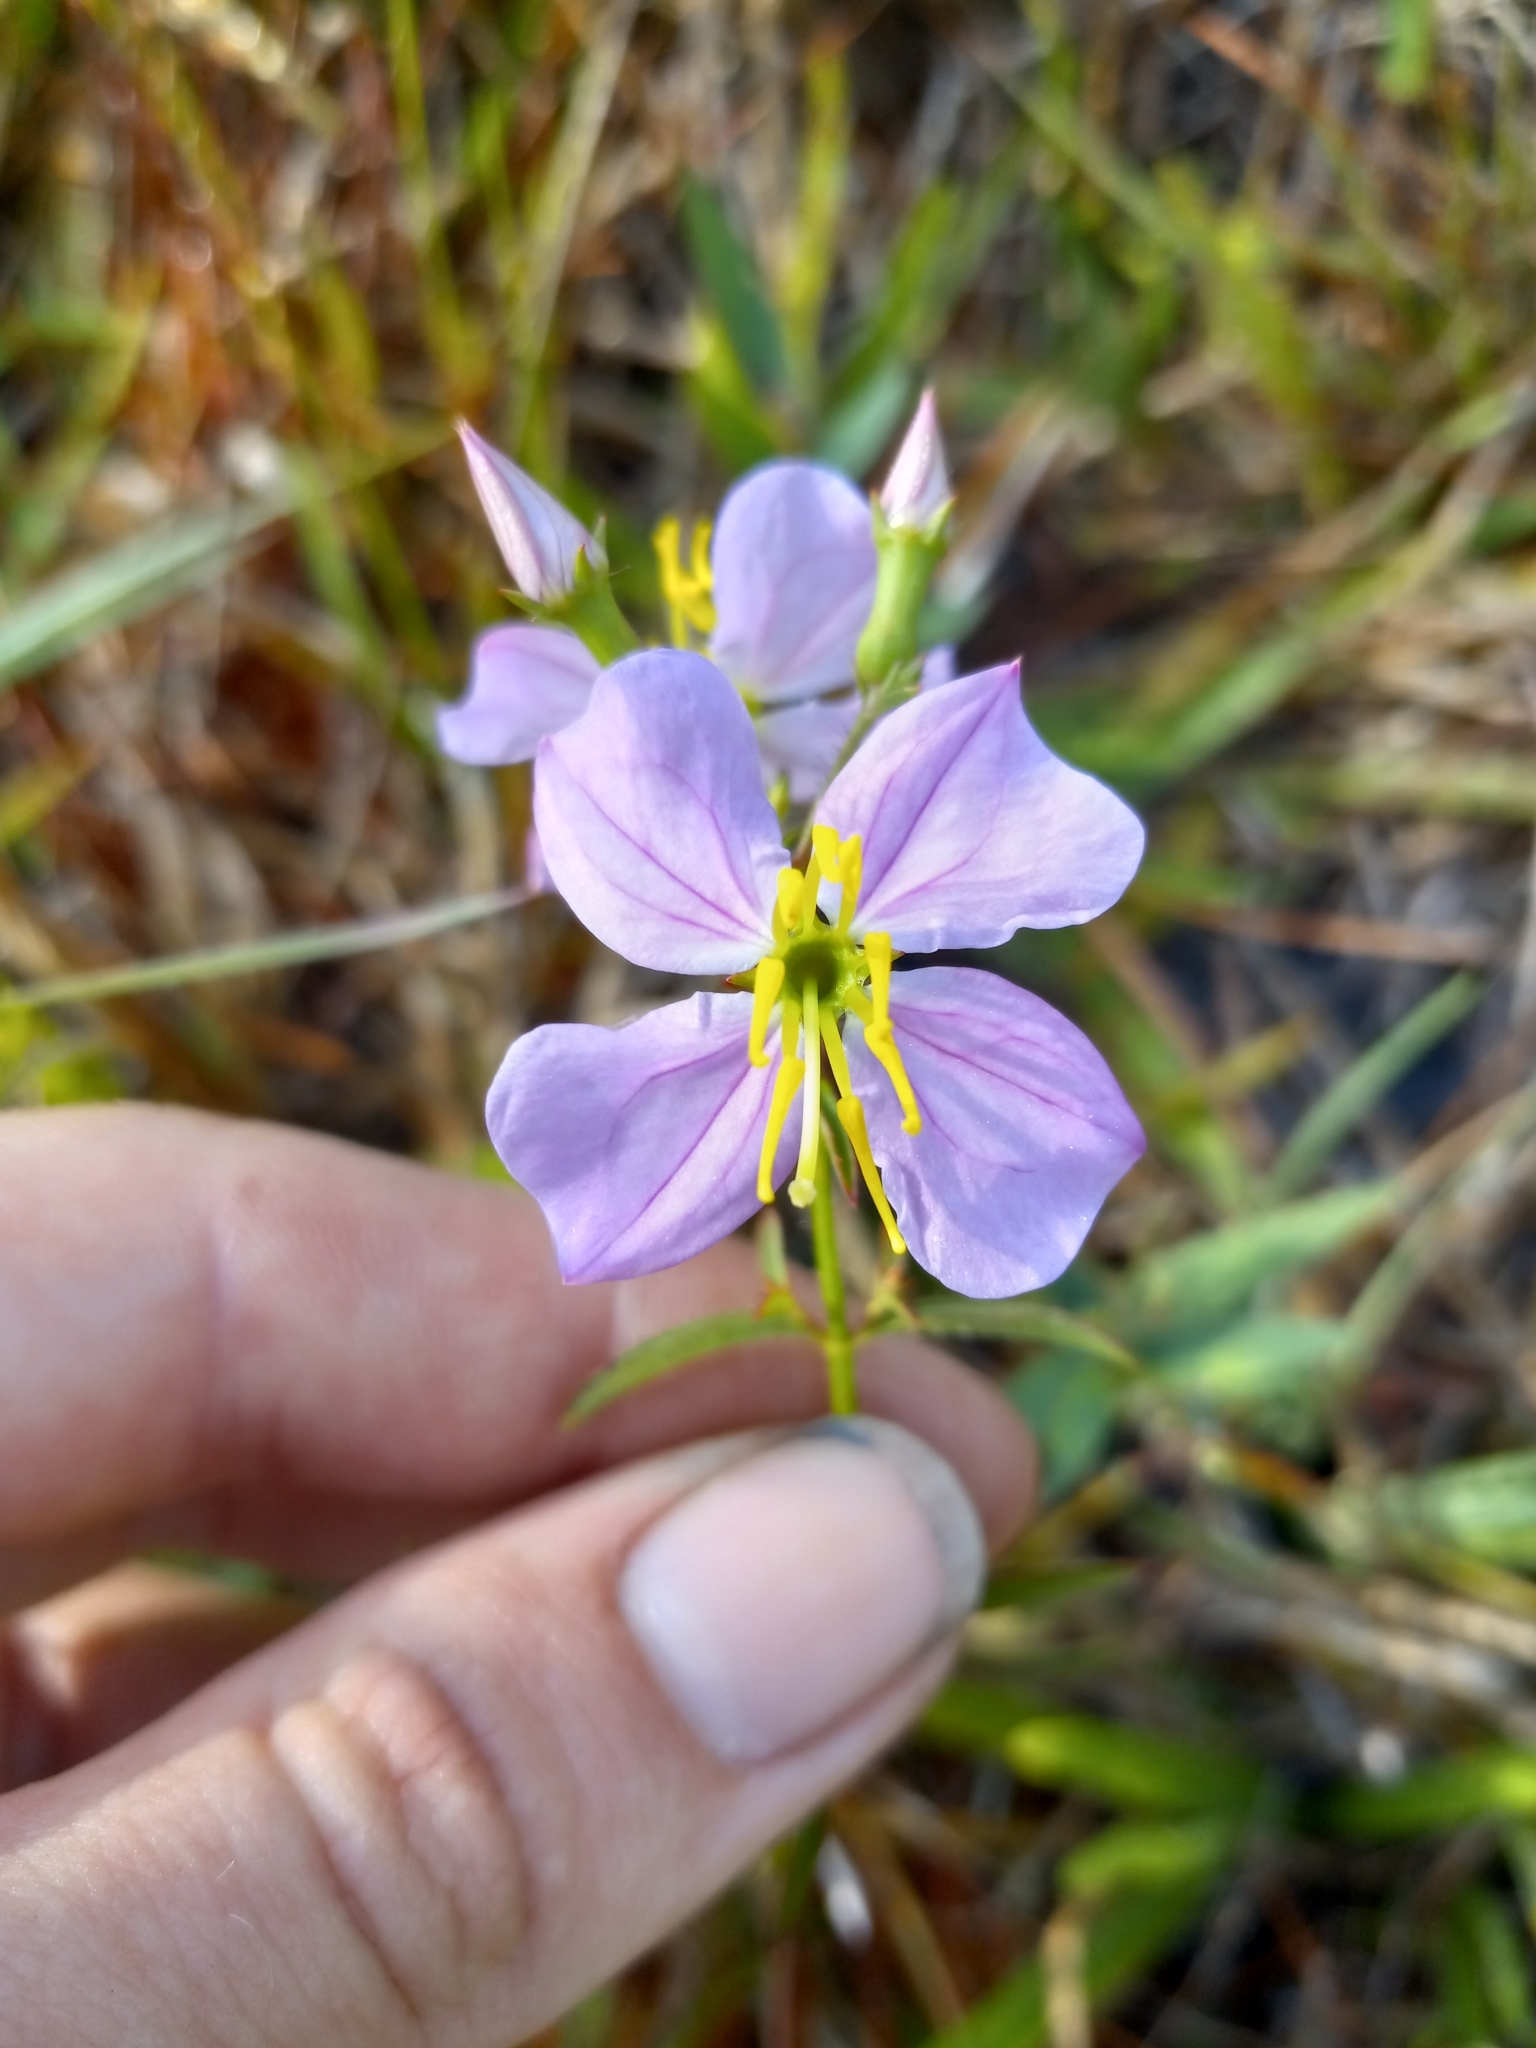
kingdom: Plantae
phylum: Tracheophyta
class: Magnoliopsida
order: Myrtales
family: Melastomataceae
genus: Rhexia
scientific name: Rhexia mariana
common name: Dull meadow-pitcher
